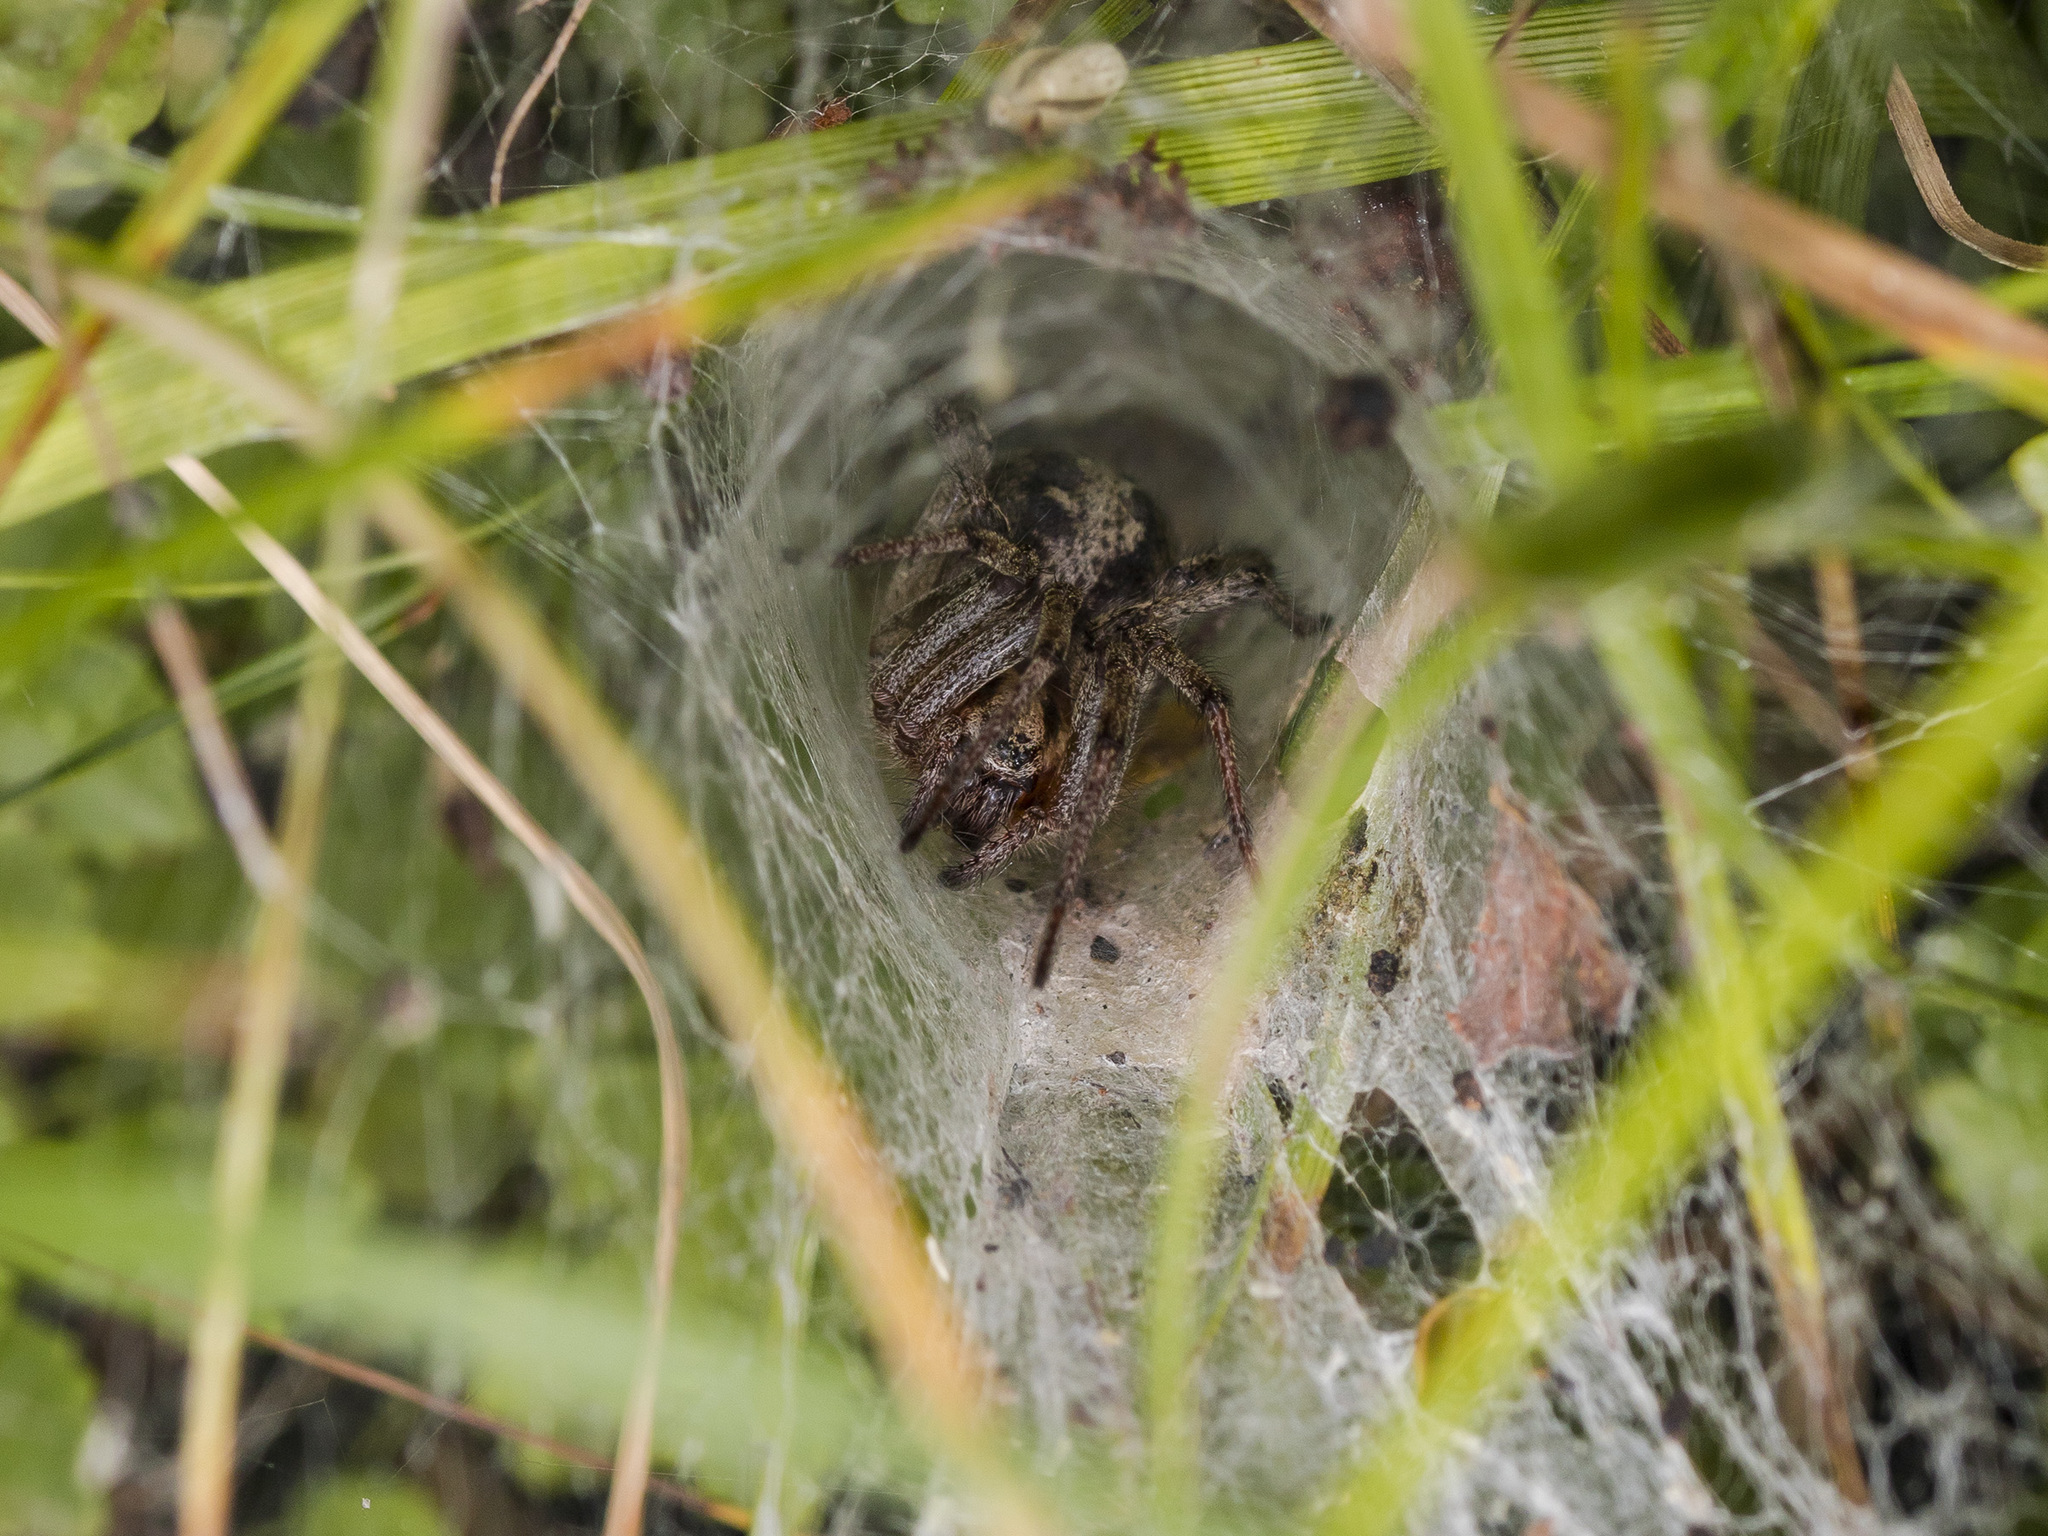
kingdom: Animalia
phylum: Arthropoda
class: Arachnida
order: Araneae
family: Agelenidae
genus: Agelena
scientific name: Agelena labyrinthica
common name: Labyrinth spider
